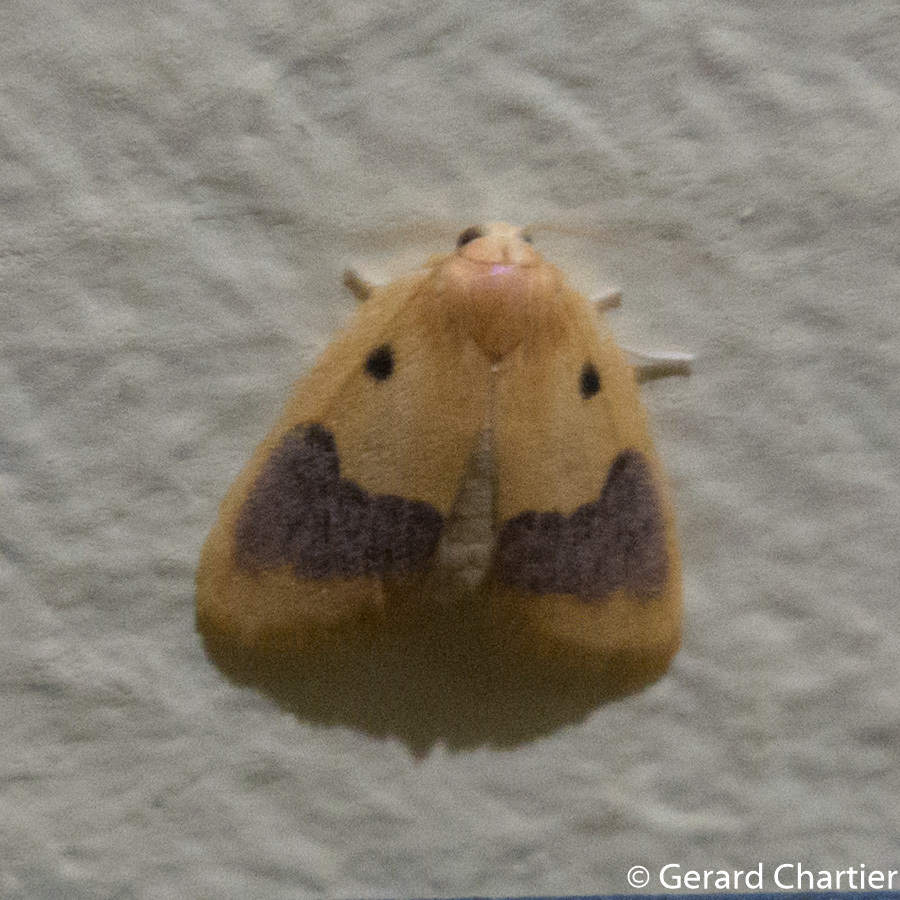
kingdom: Animalia
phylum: Arthropoda
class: Insecta
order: Lepidoptera
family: Erebidae
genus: Cyclomilta
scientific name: Cyclomilta cambodiaca
